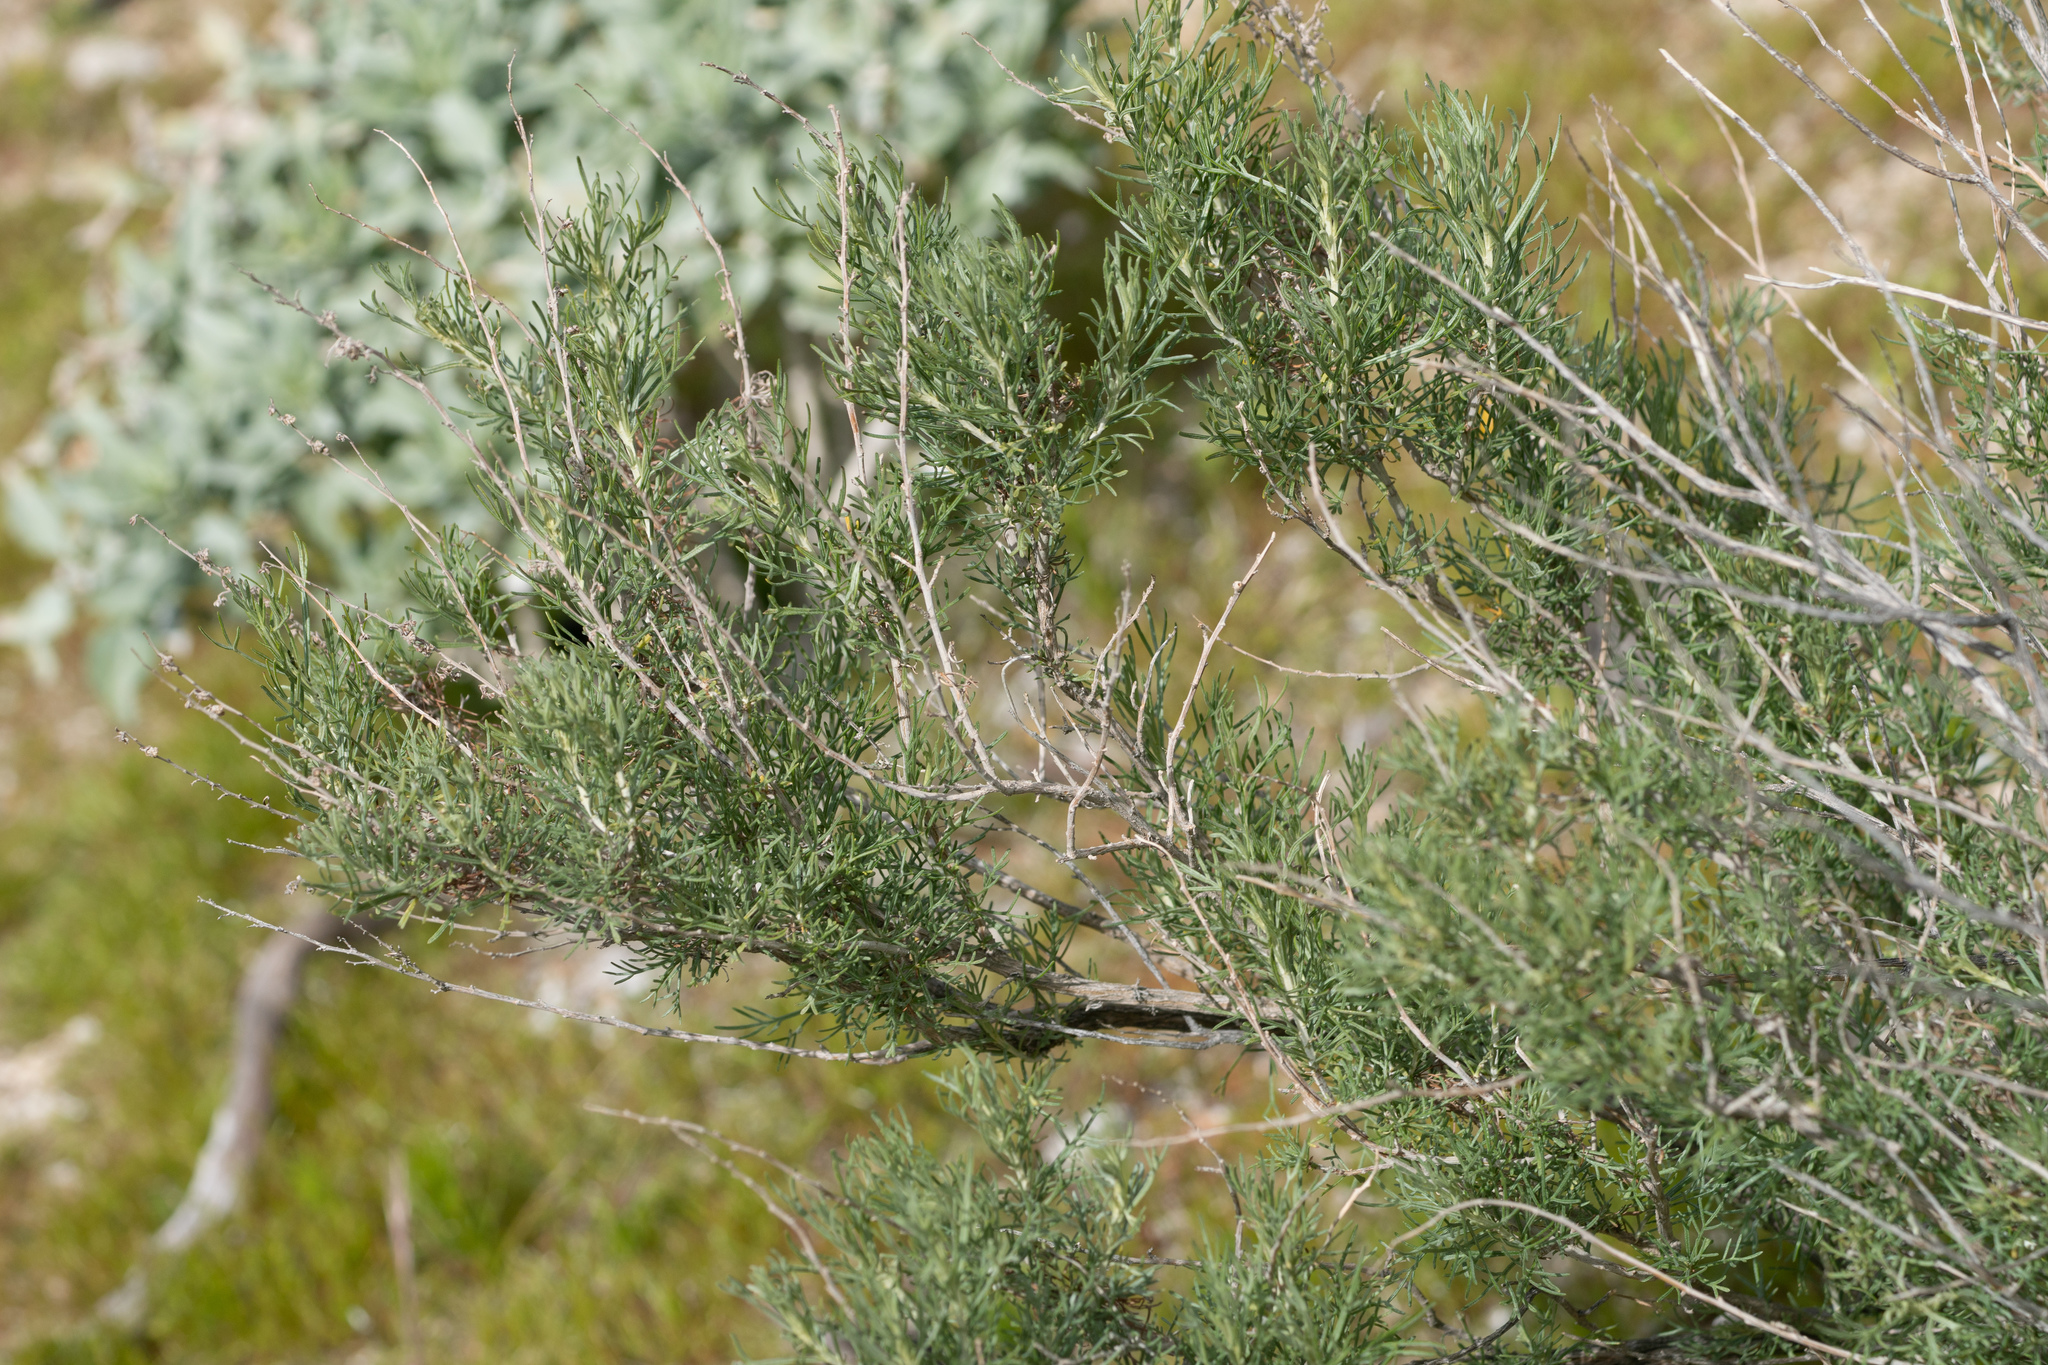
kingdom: Plantae
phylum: Tracheophyta
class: Magnoliopsida
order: Asterales
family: Asteraceae
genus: Artemisia
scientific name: Artemisia californica
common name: California sagebrush
